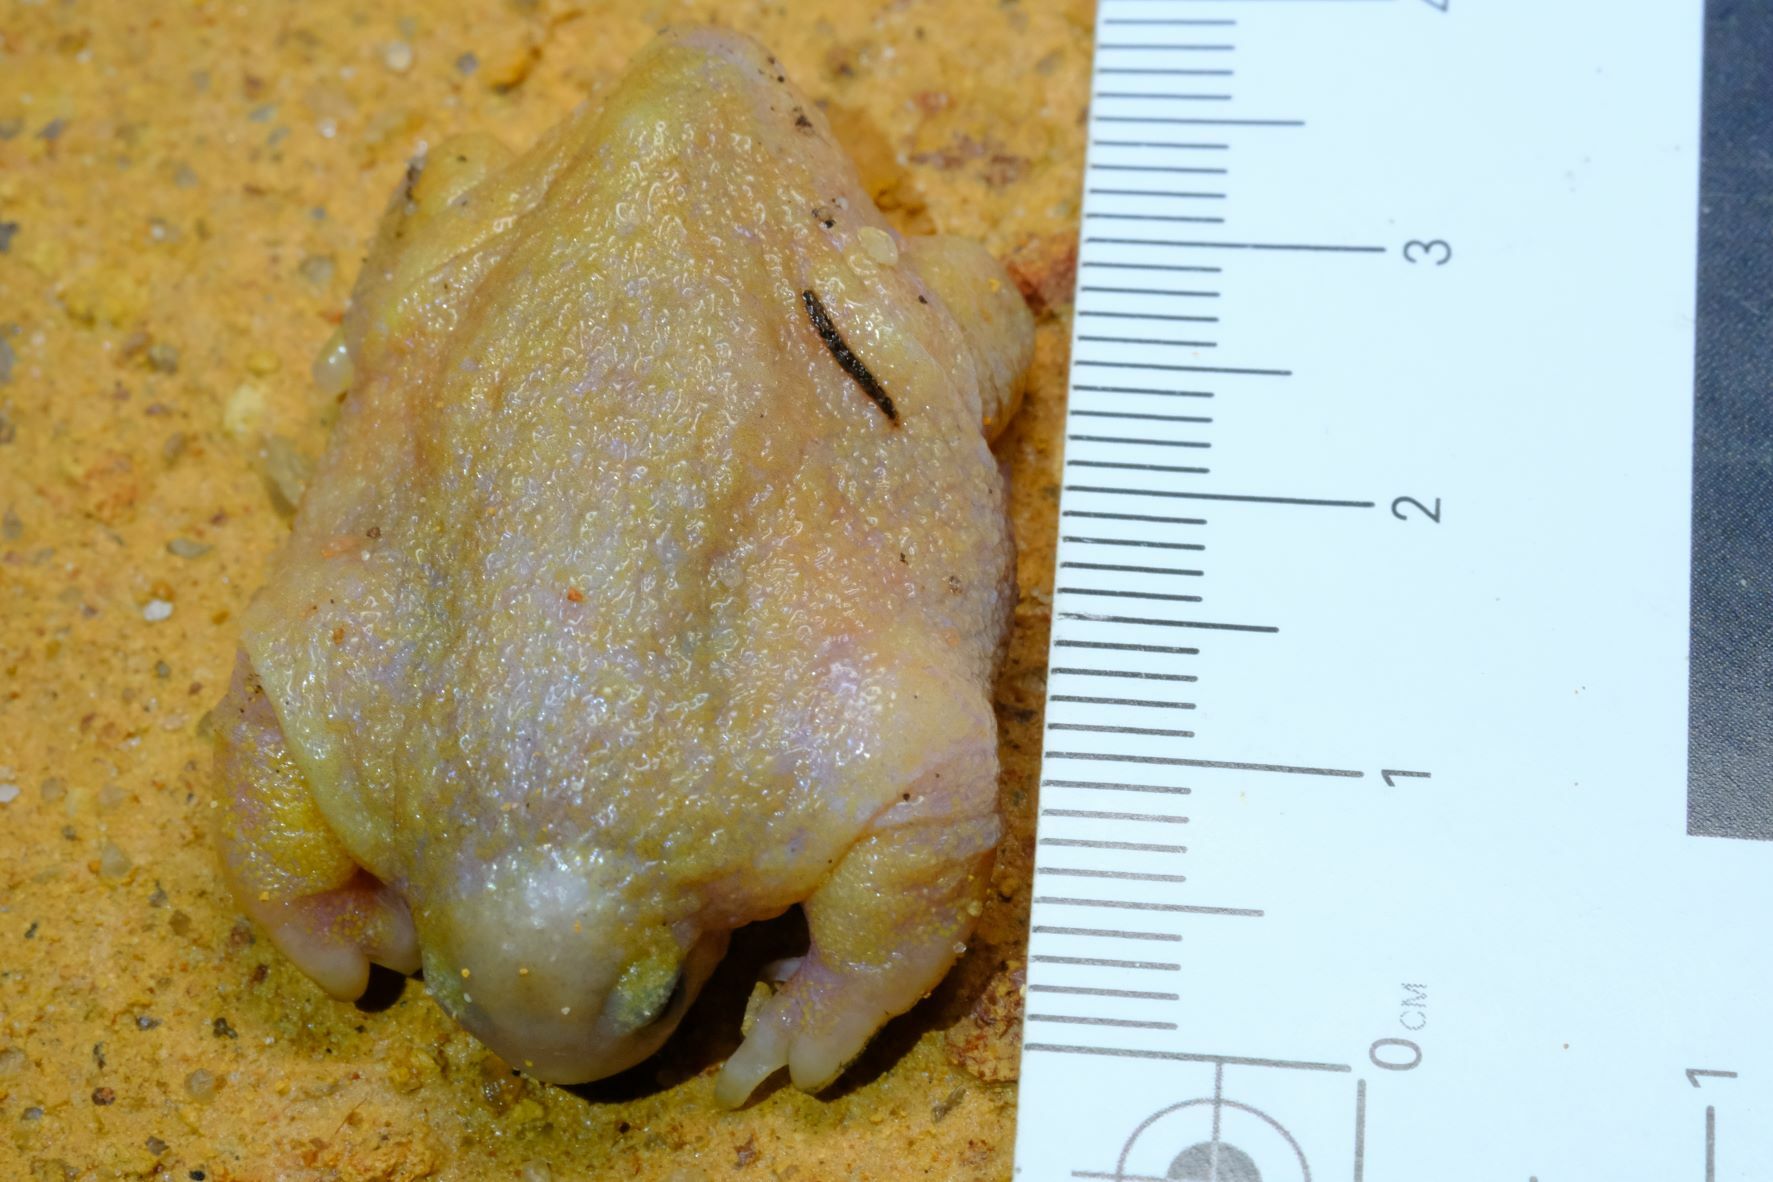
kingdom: Animalia
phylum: Chordata
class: Amphibia
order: Anura
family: Myobatrachidae
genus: Myobatrachus
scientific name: Myobatrachus gouldii
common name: Turtle frog
